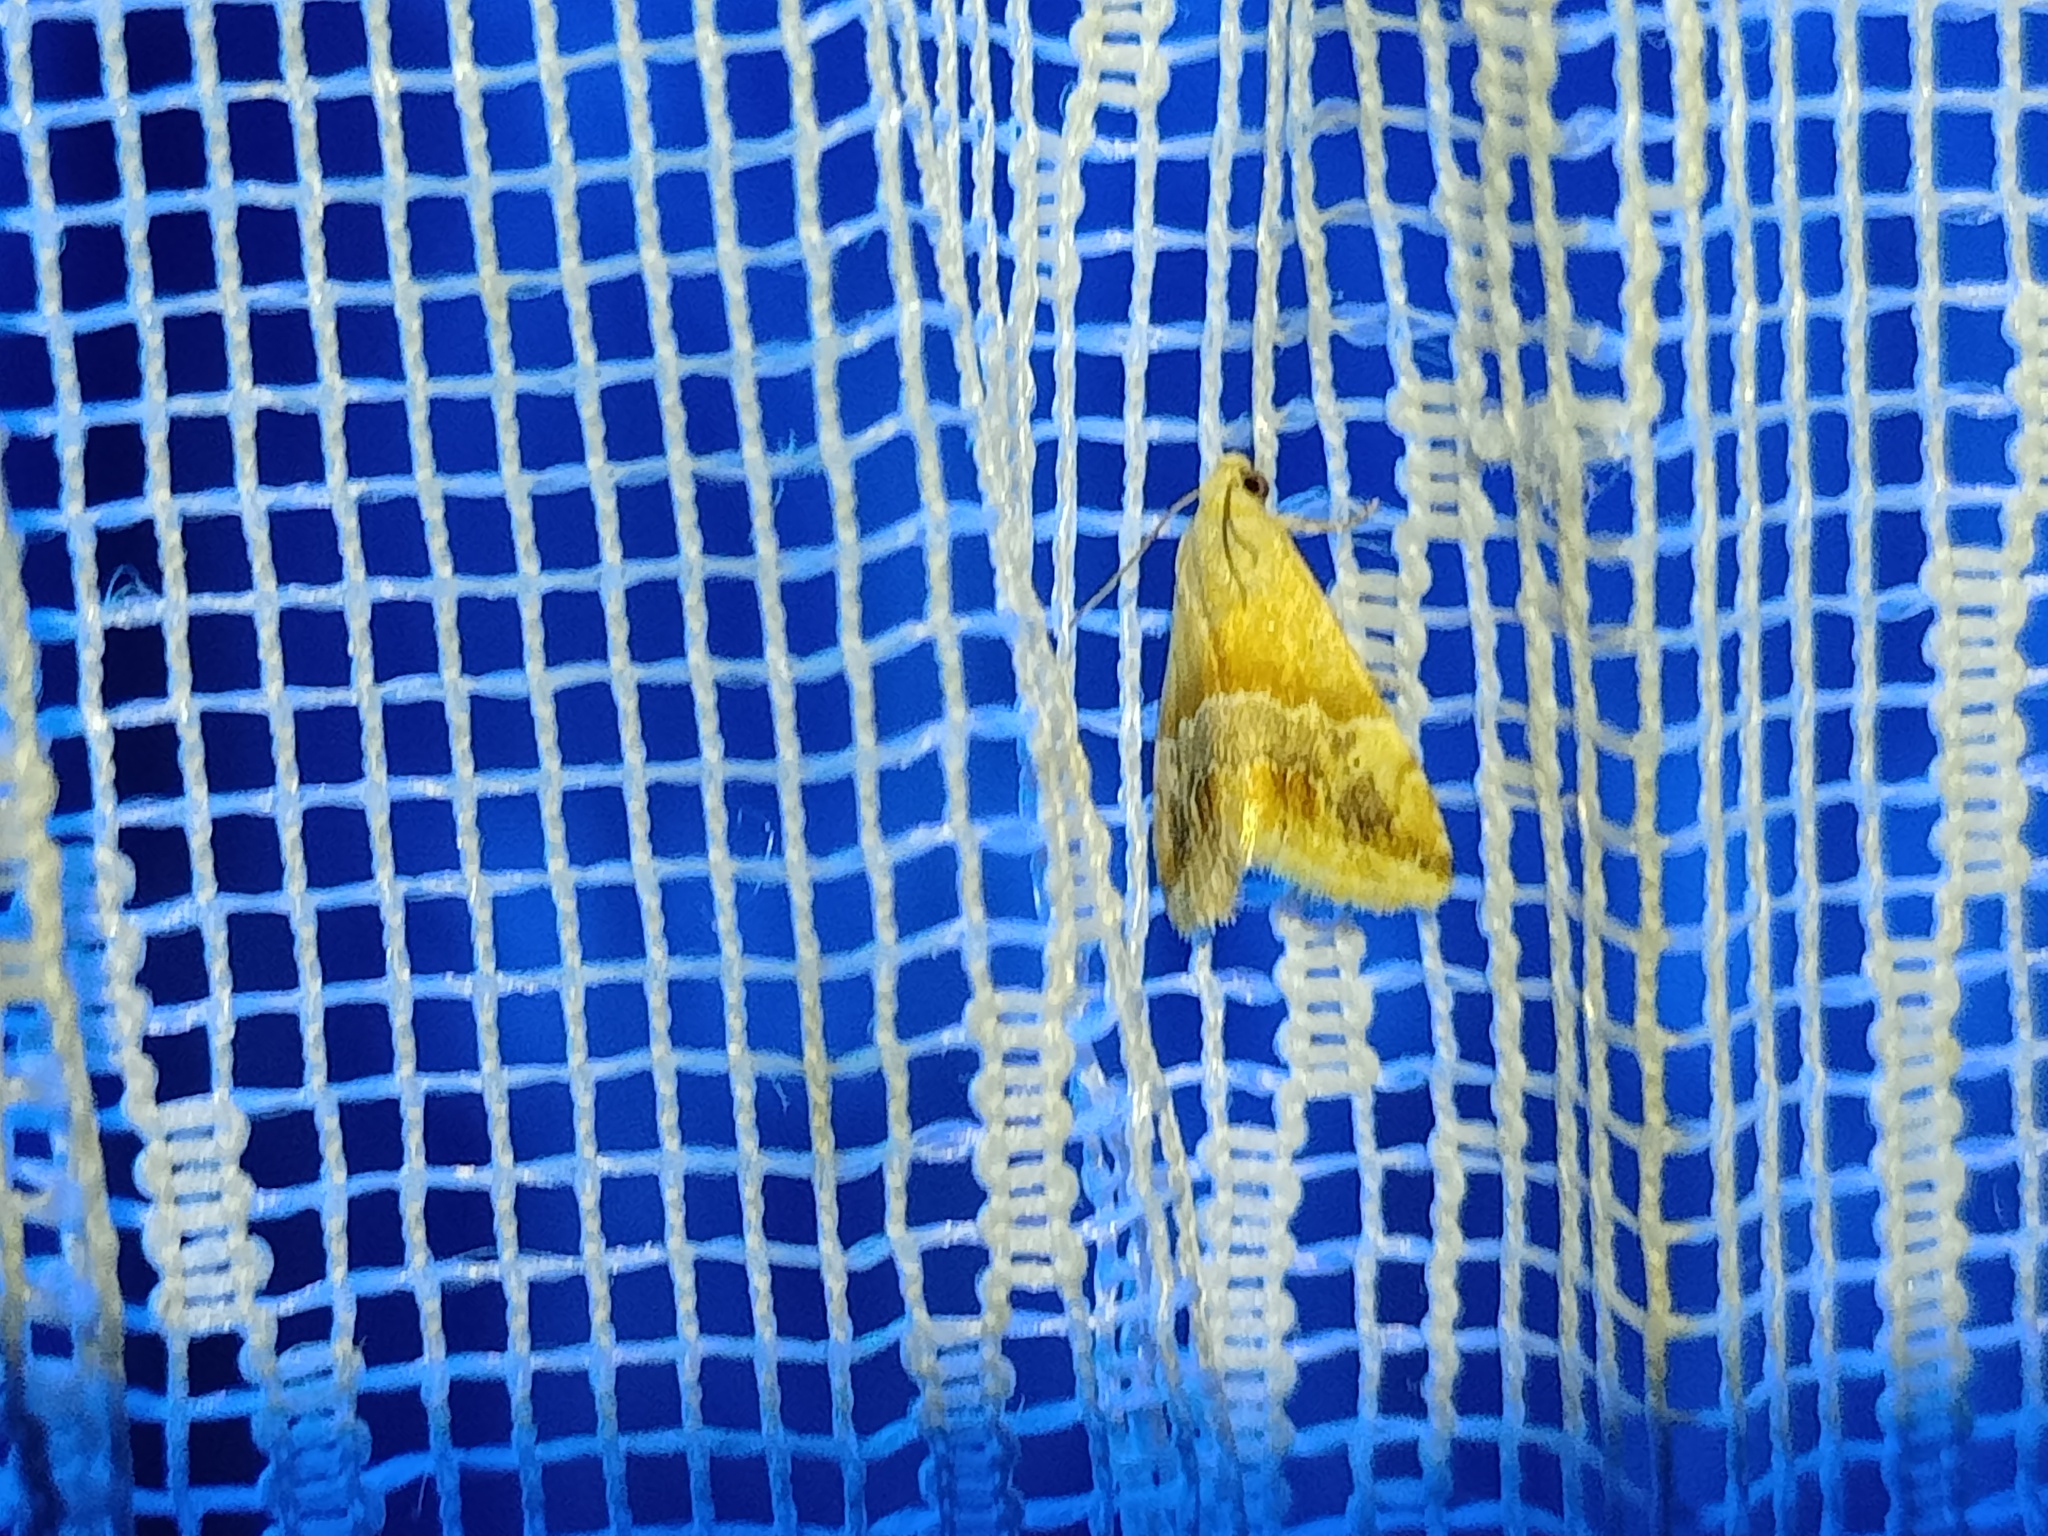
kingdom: Animalia
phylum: Arthropoda
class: Insecta
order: Lepidoptera
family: Noctuidae
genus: Eublemma
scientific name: Eublemma parva
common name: Small marbled
